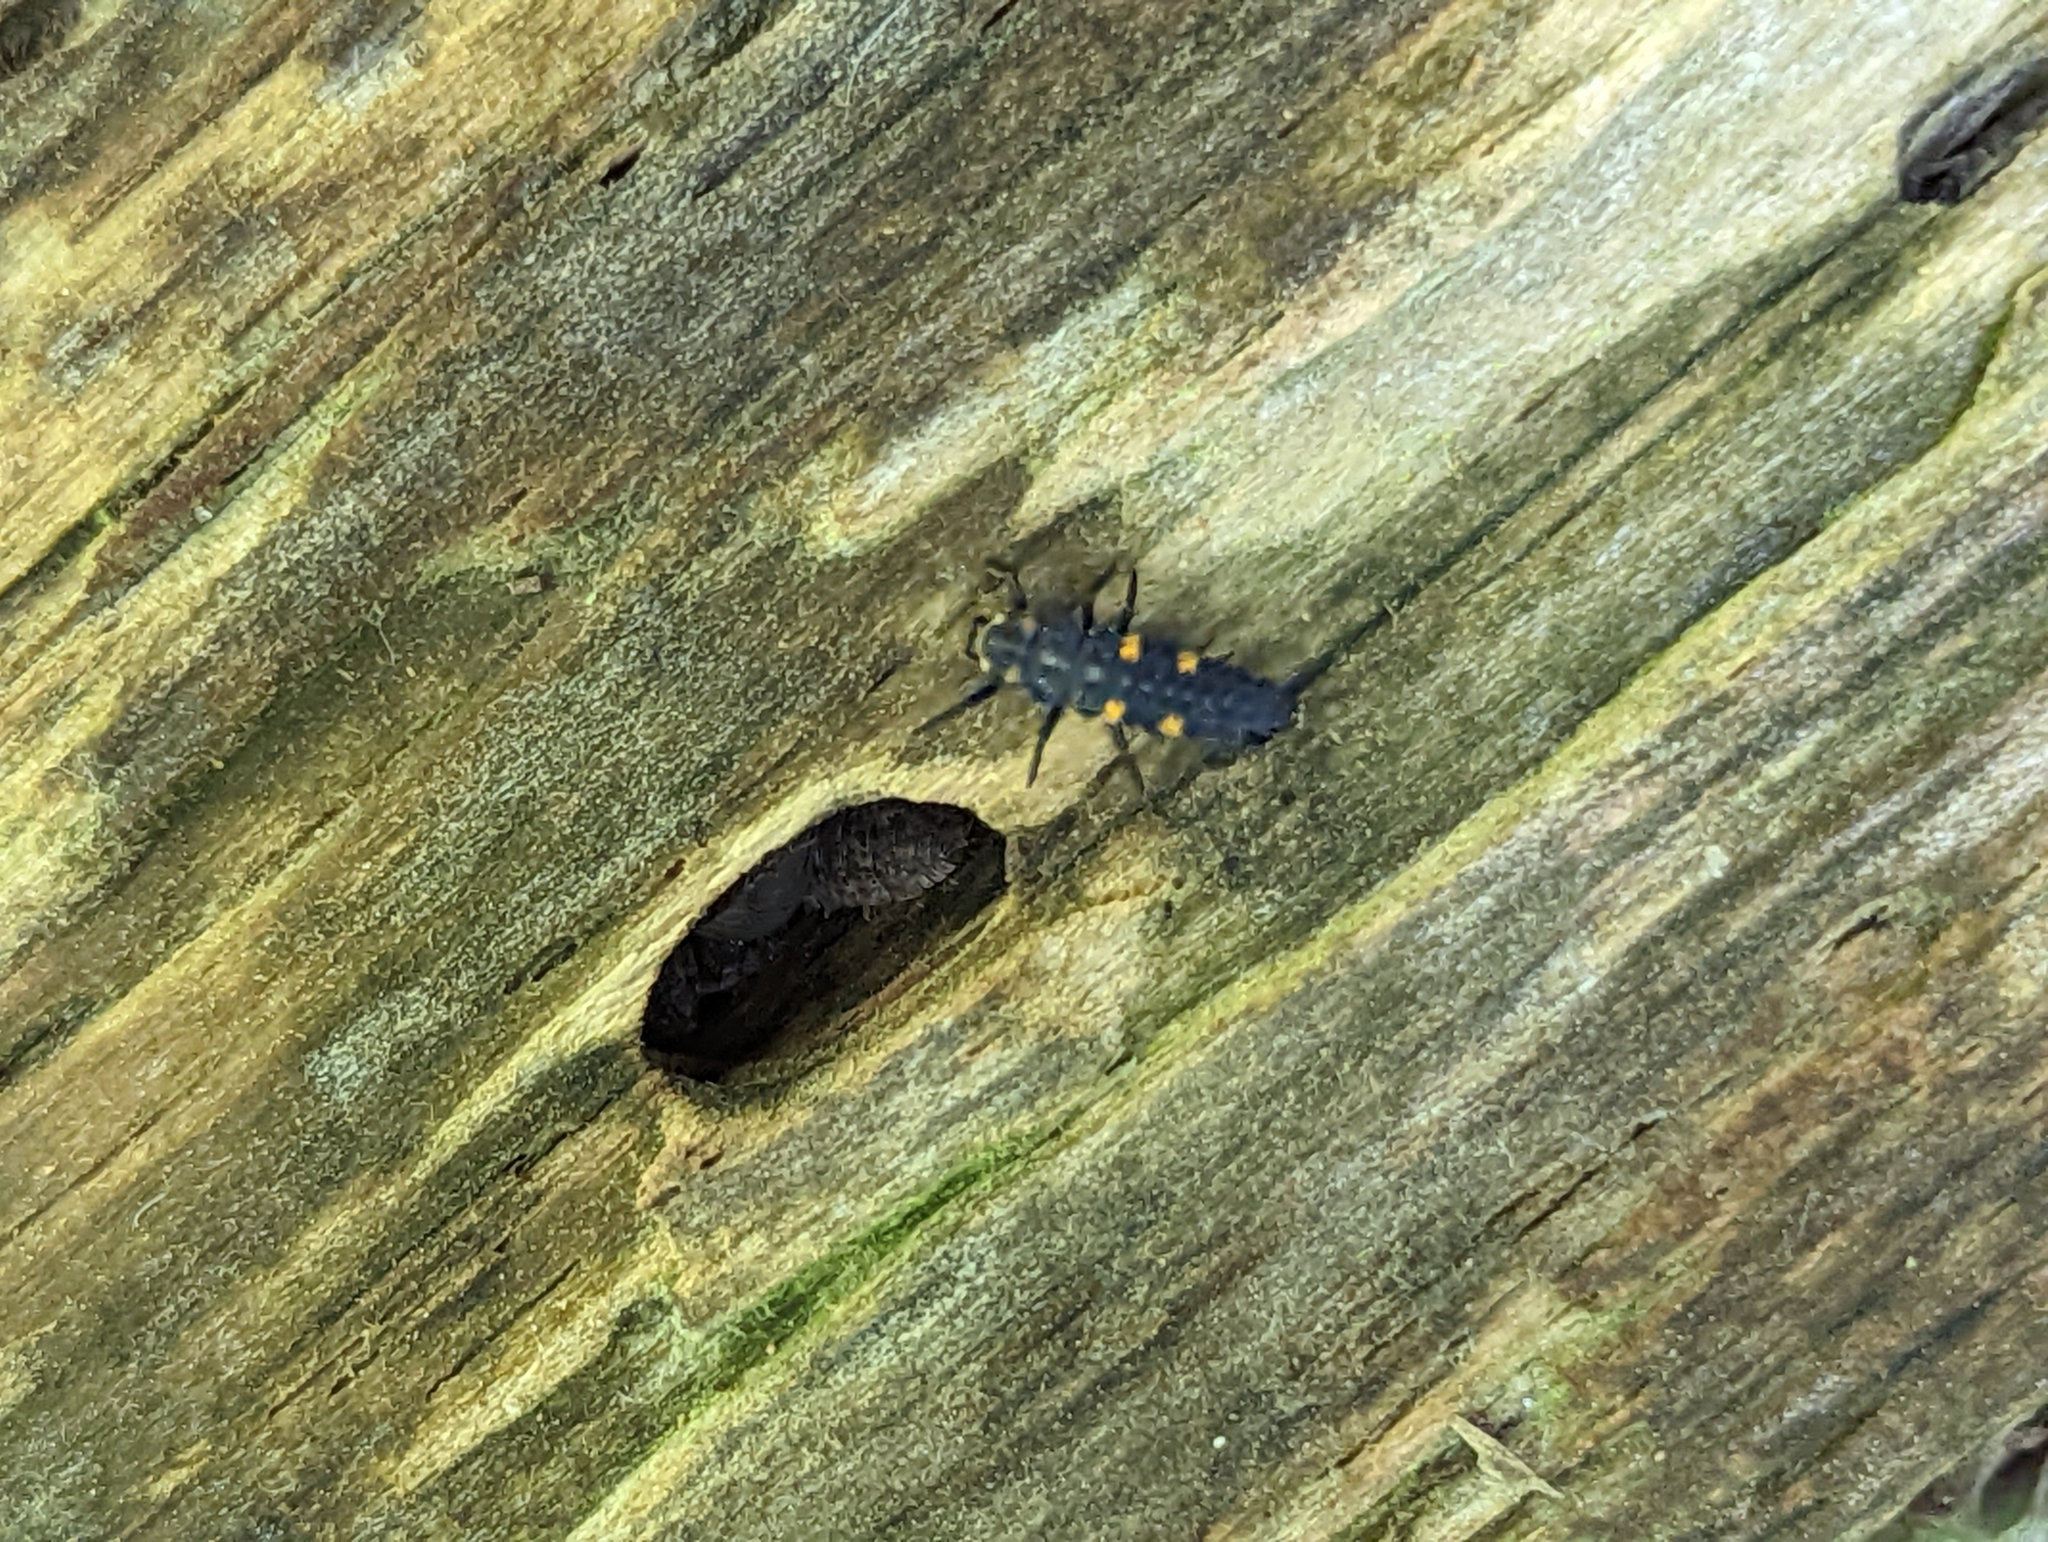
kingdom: Animalia
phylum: Arthropoda
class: Insecta
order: Coleoptera
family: Coccinellidae
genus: Coccinella
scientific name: Coccinella septempunctata
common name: Sevenspotted lady beetle
